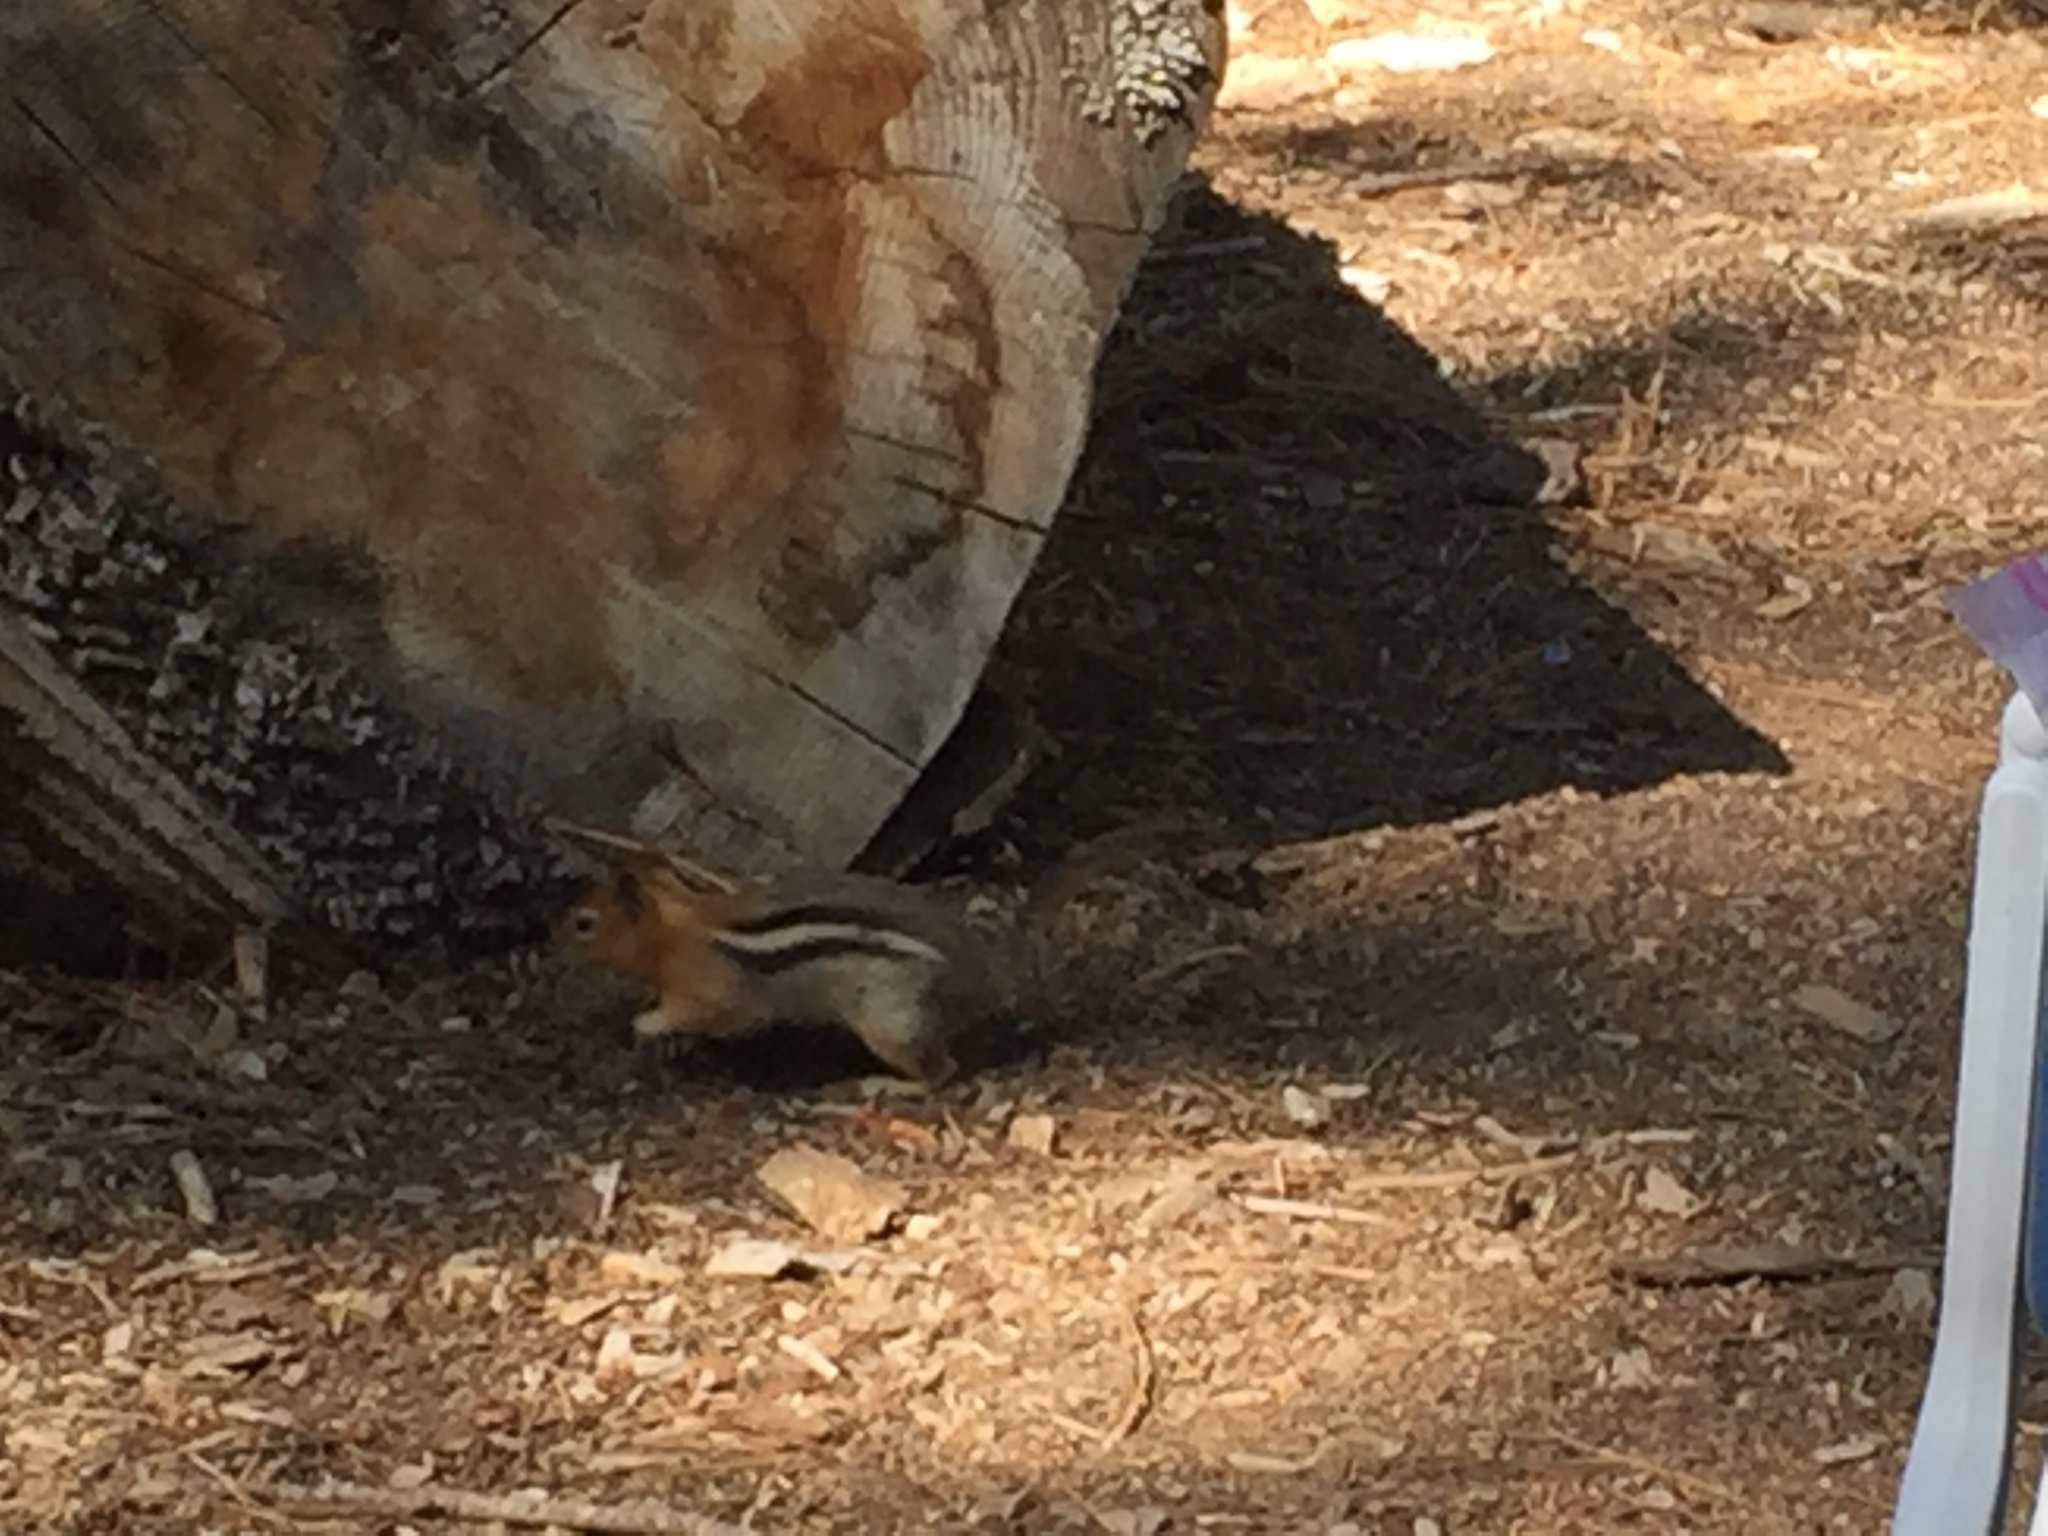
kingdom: Animalia
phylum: Chordata
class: Mammalia
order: Rodentia
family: Sciuridae
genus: Callospermophilus
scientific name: Callospermophilus lateralis
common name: Golden-mantled ground squirrel
